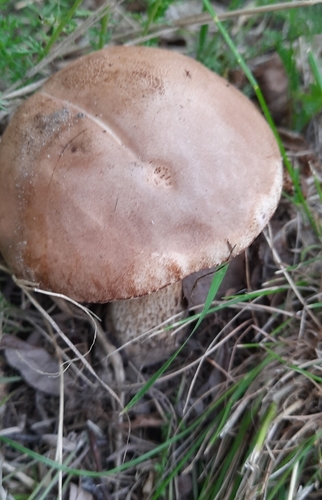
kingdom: Fungi
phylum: Basidiomycota
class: Agaricomycetes
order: Boletales
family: Boletaceae
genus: Leccinum
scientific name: Leccinum scabrum
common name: Blushing bolete
